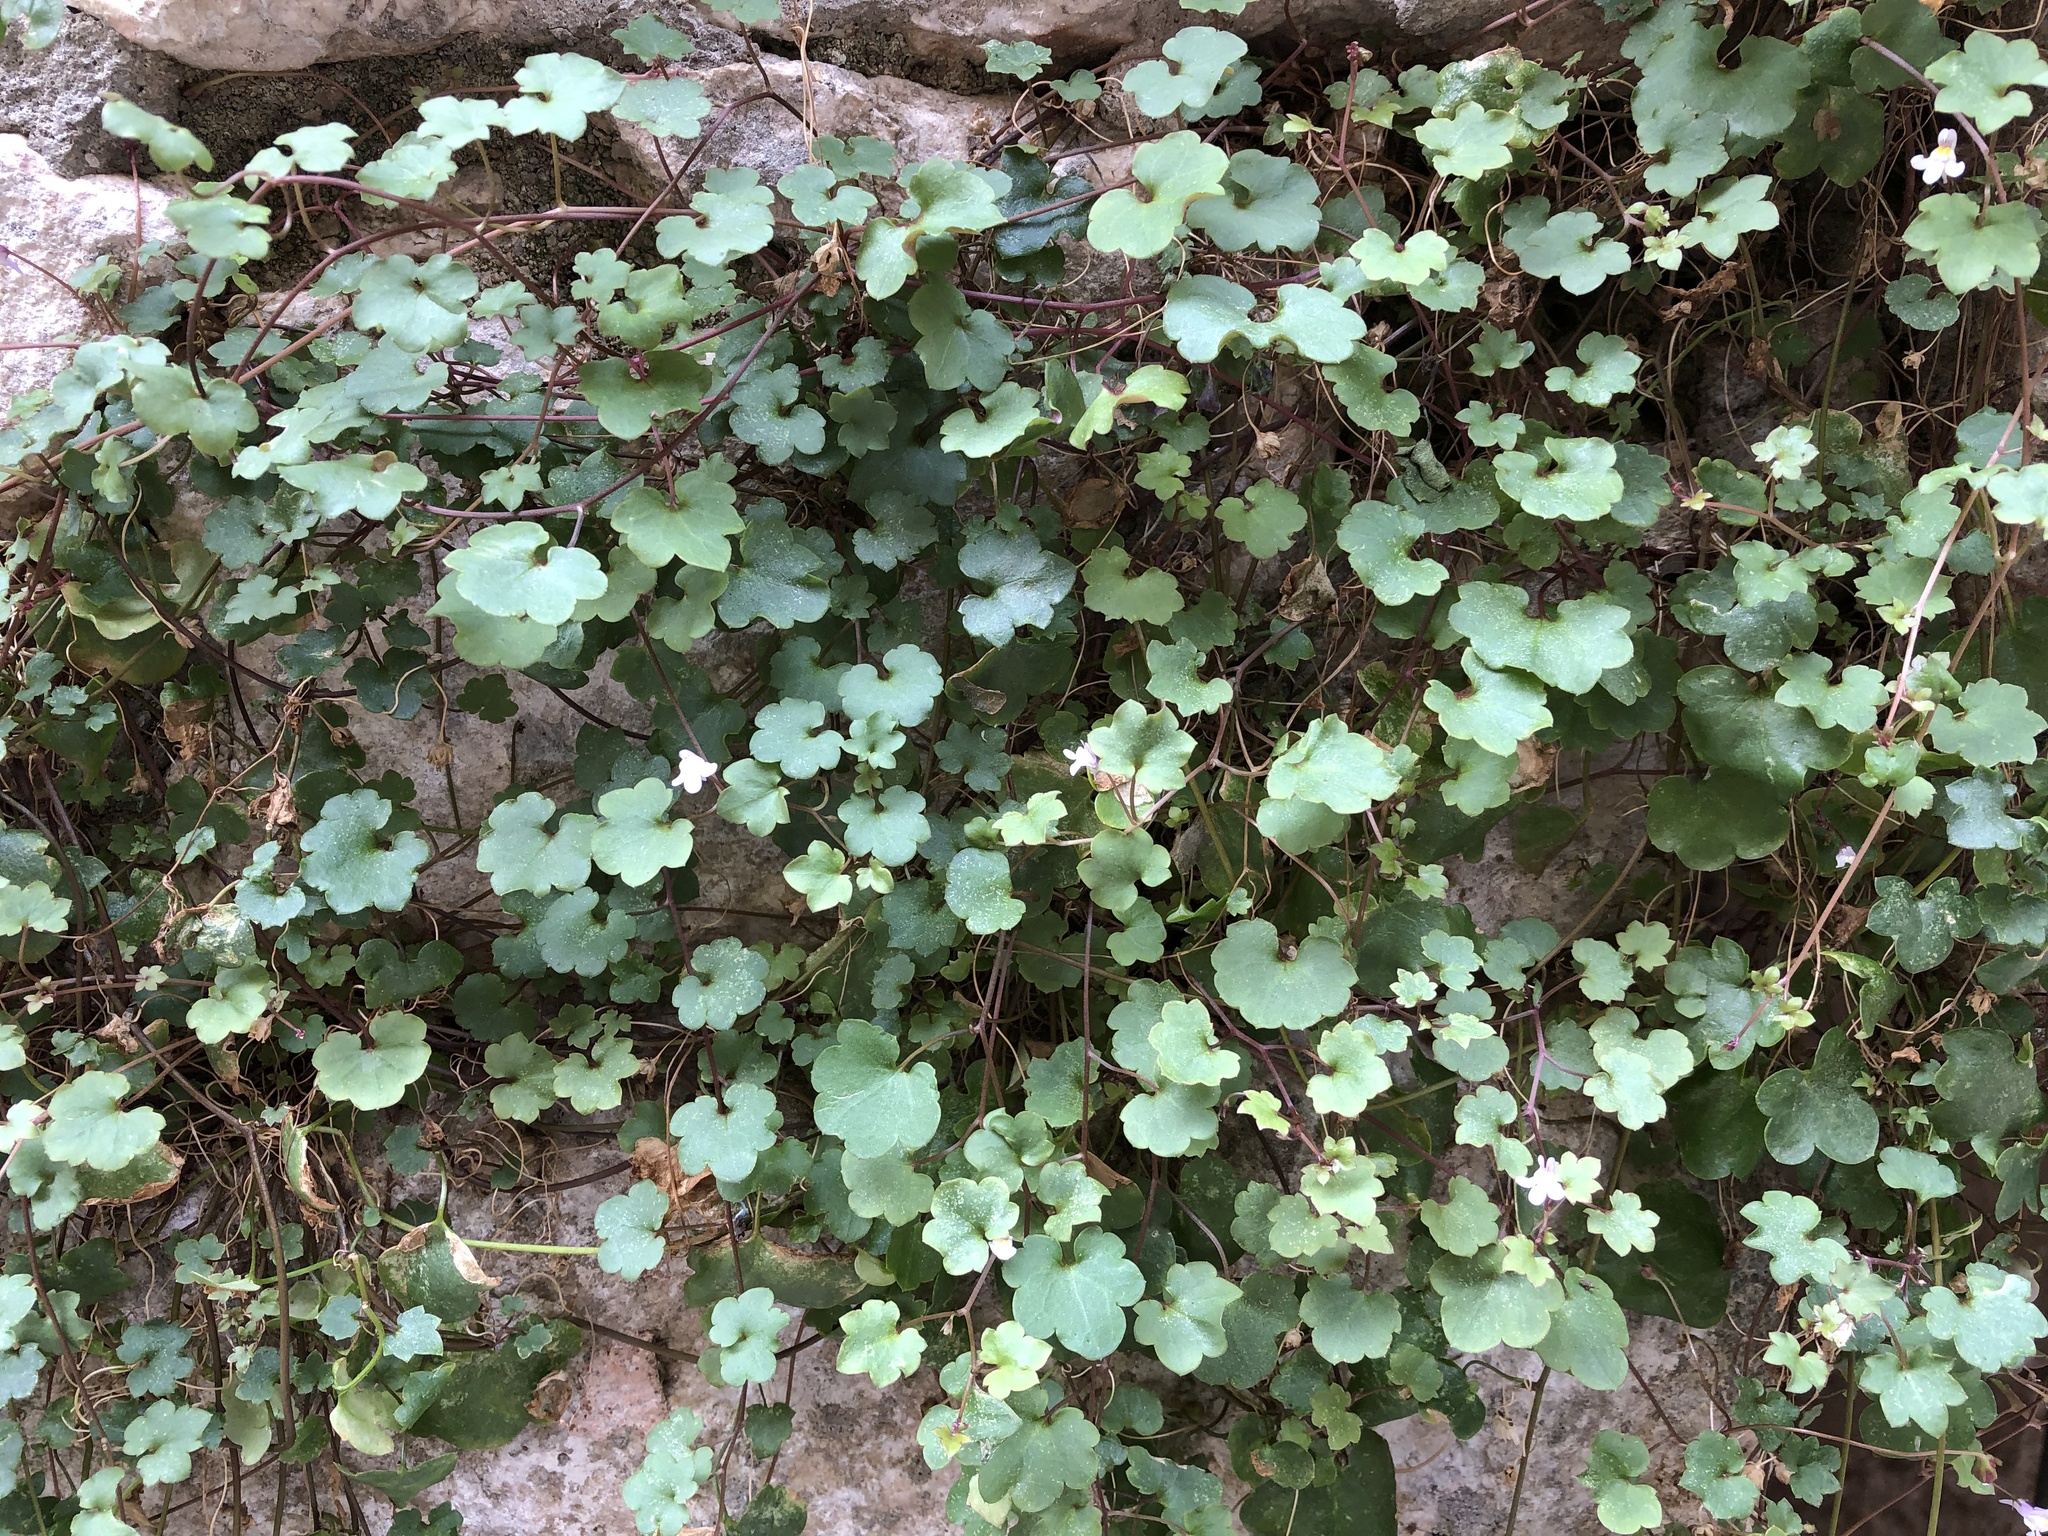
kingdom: Plantae
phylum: Tracheophyta
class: Magnoliopsida
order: Lamiales
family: Plantaginaceae
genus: Cymbalaria
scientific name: Cymbalaria muralis
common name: Ivy-leaved toadflax
